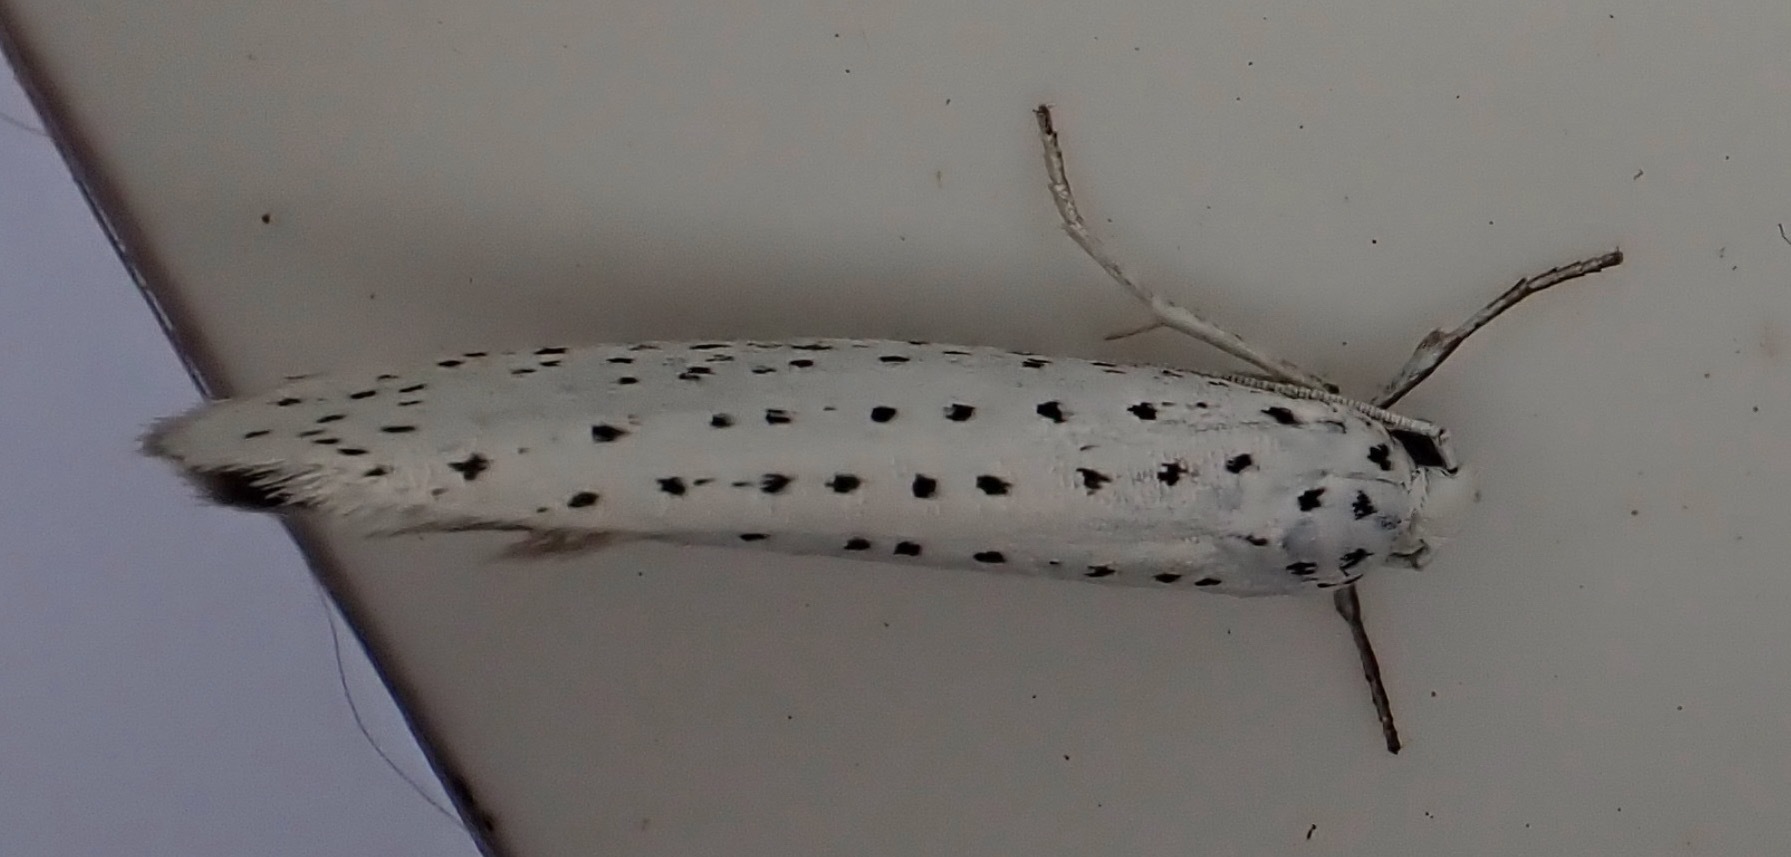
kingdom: Animalia
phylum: Arthropoda
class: Insecta
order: Lepidoptera
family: Yponomeutidae
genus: Yponomeuta
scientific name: Yponomeuta evonymella
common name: Bird-cherry ermine
